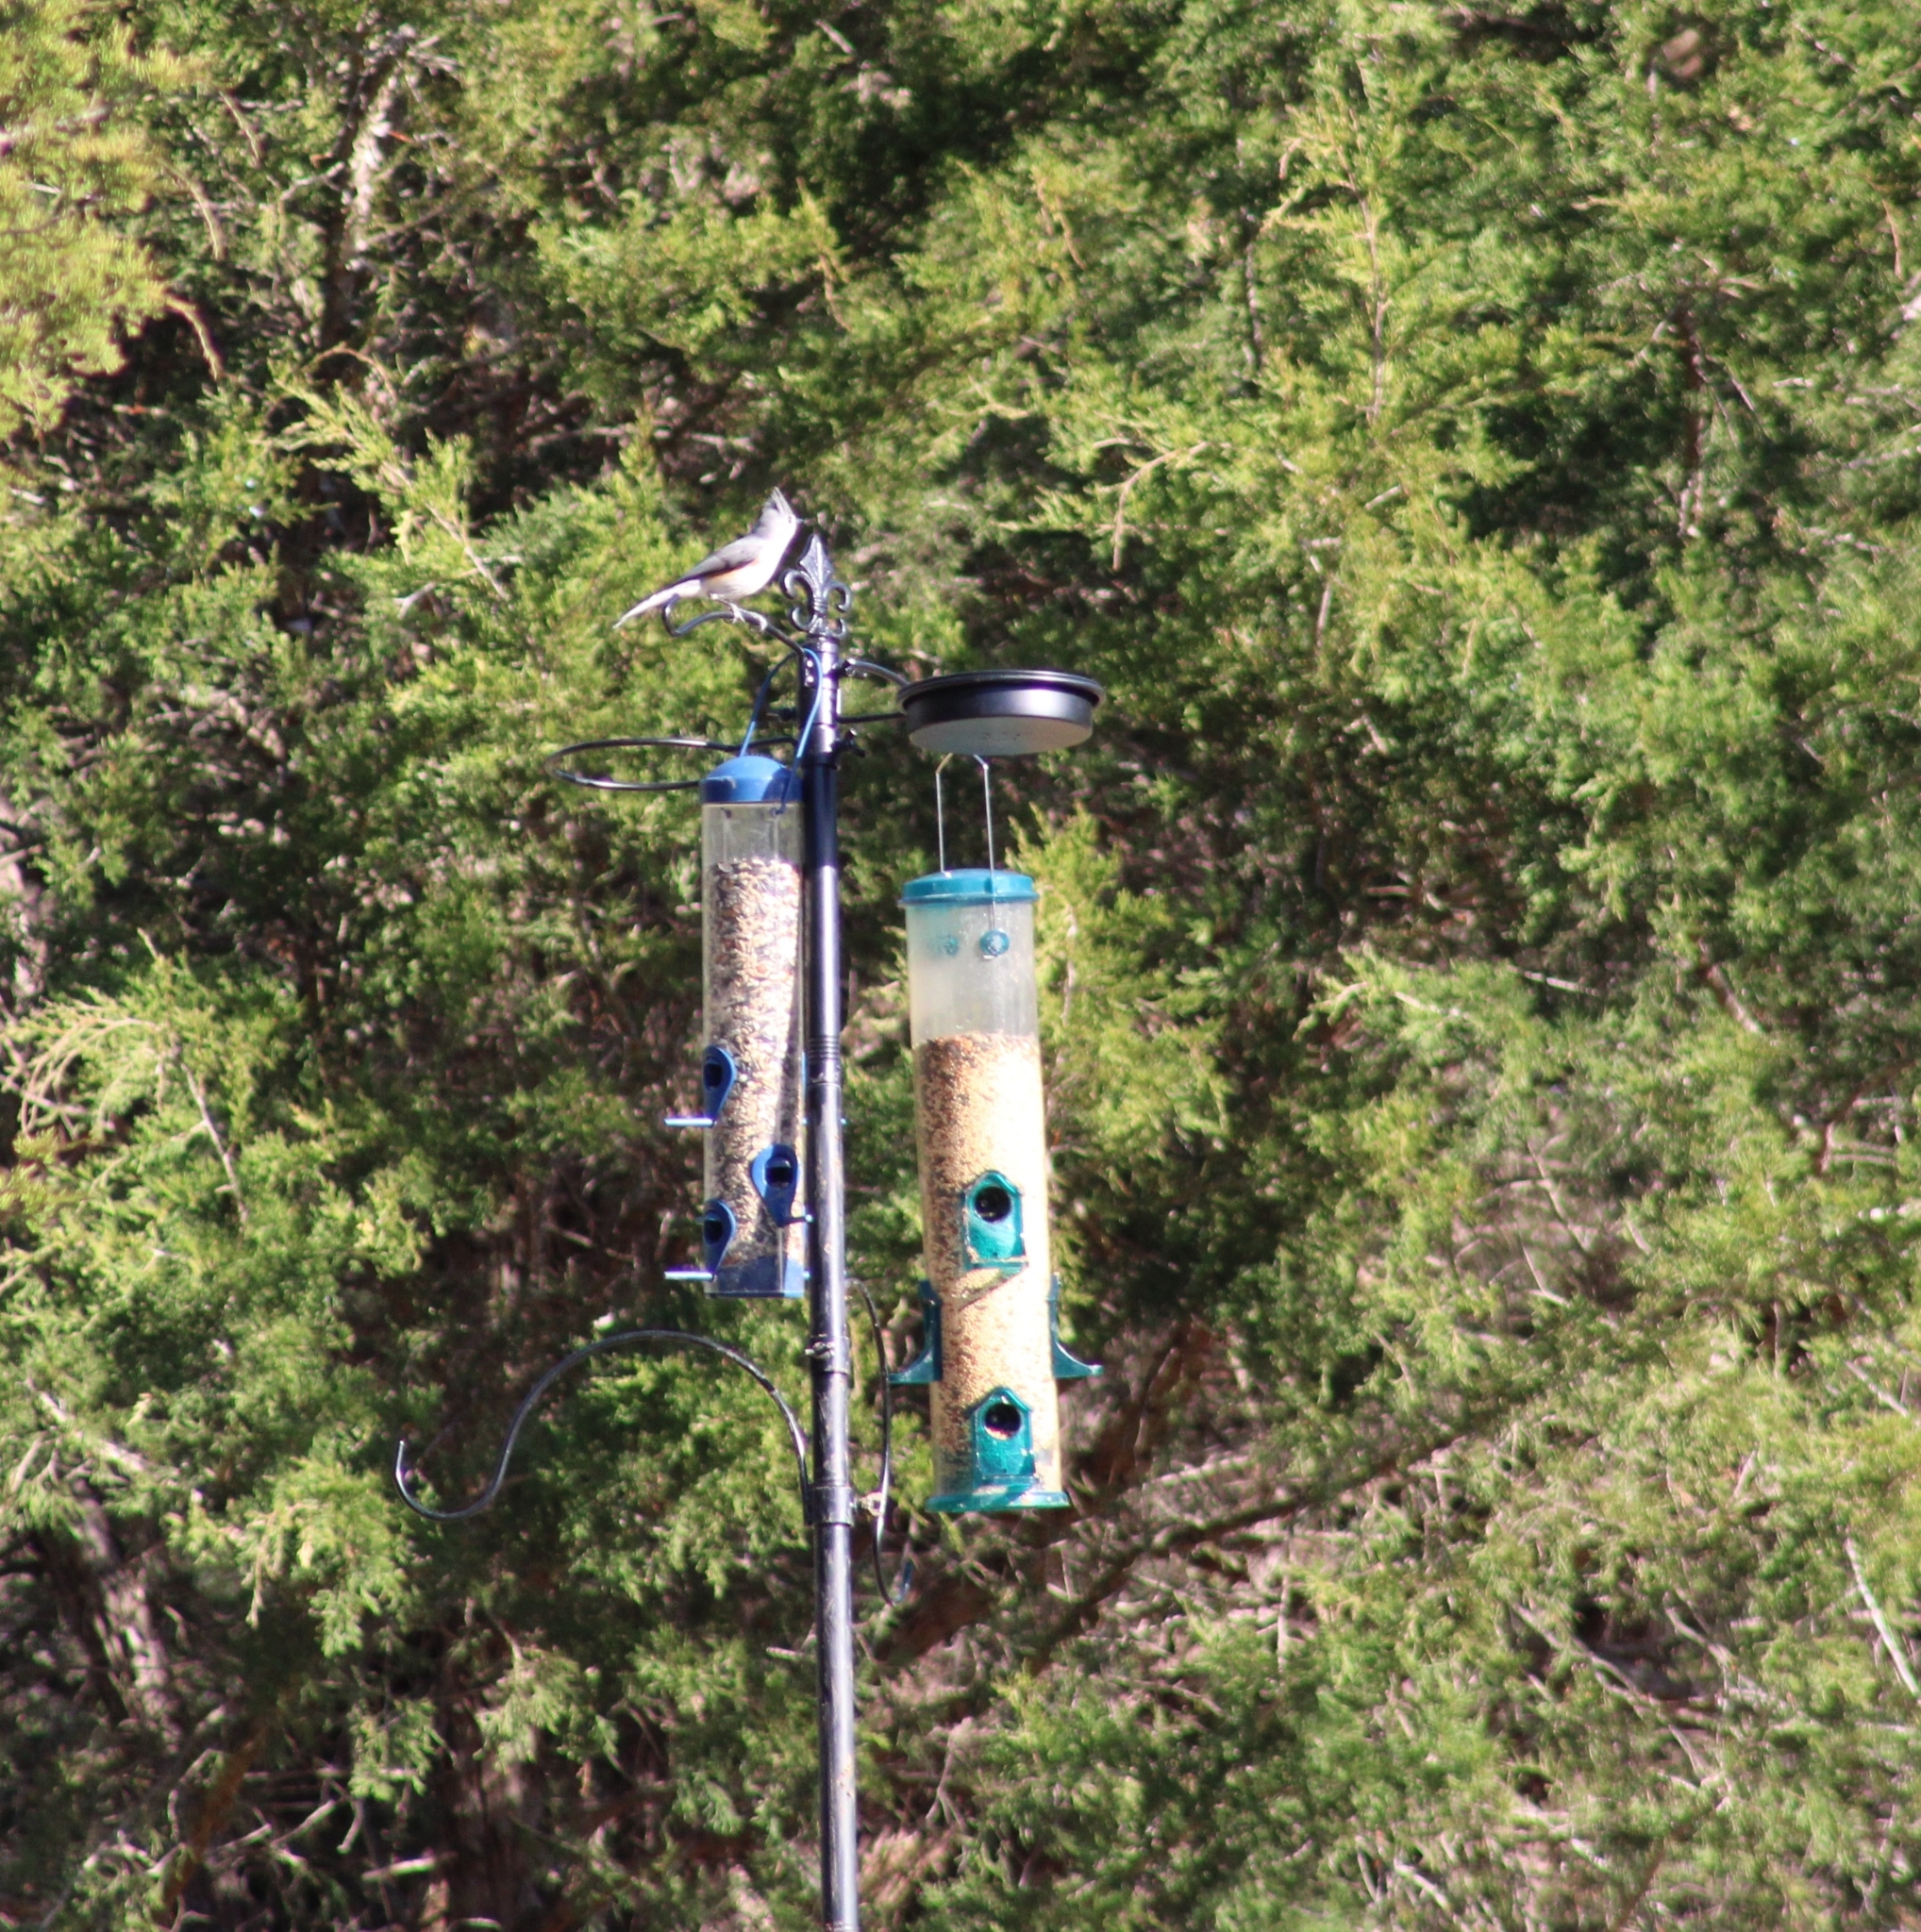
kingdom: Animalia
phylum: Chordata
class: Aves
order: Passeriformes
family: Paridae
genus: Baeolophus
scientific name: Baeolophus bicolor
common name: Tufted titmouse
